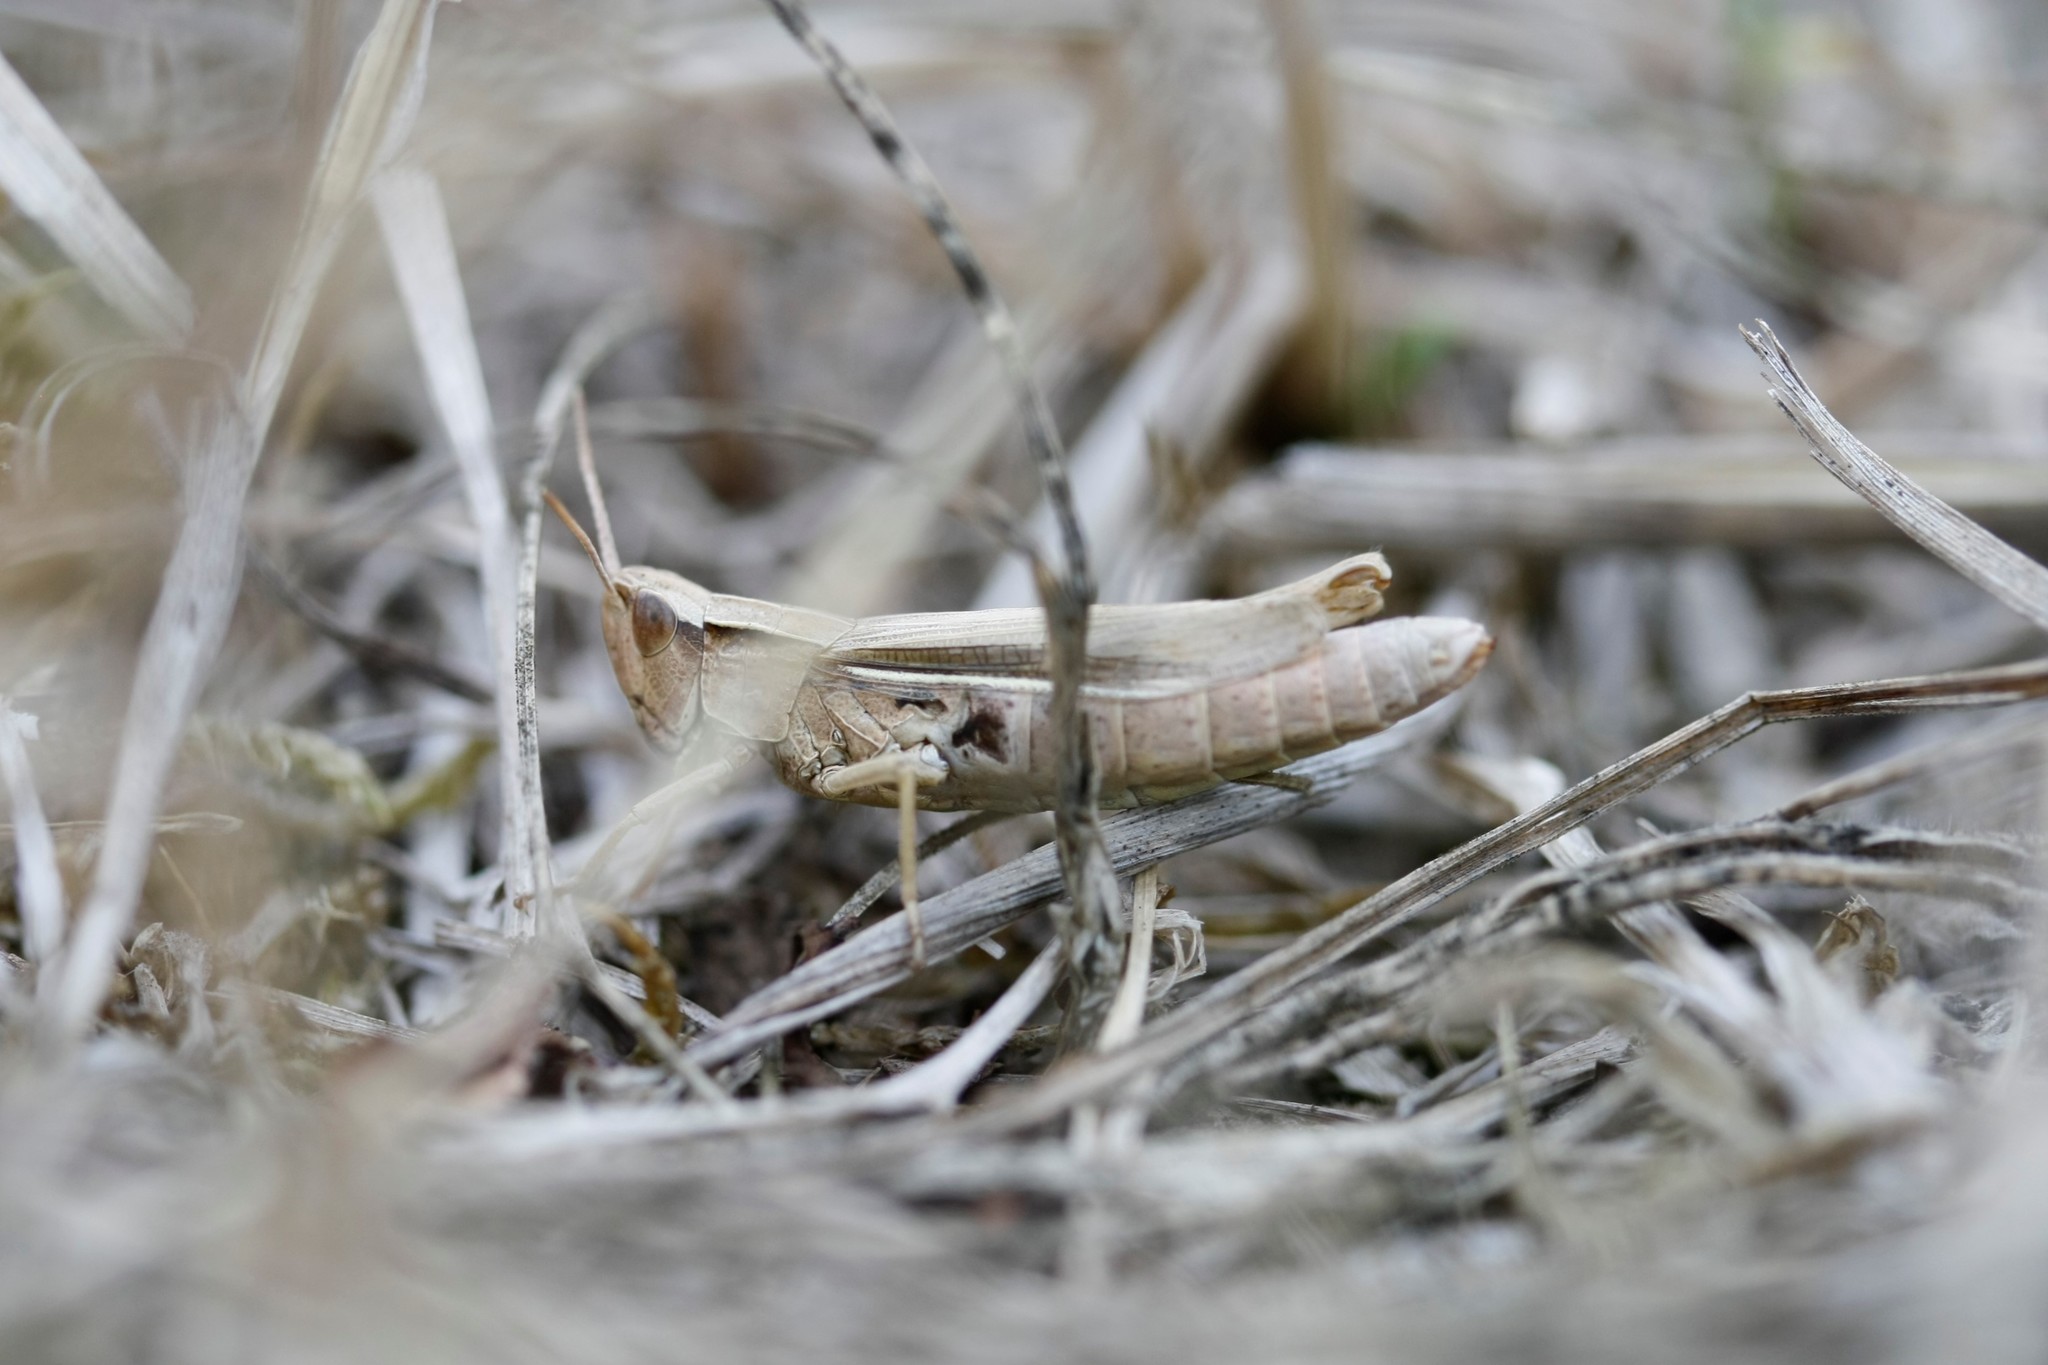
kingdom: Animalia
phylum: Arthropoda
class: Insecta
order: Orthoptera
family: Acrididae
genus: Chorthippus
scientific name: Chorthippus albomarginatus
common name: Lesser marsh grasshopper
